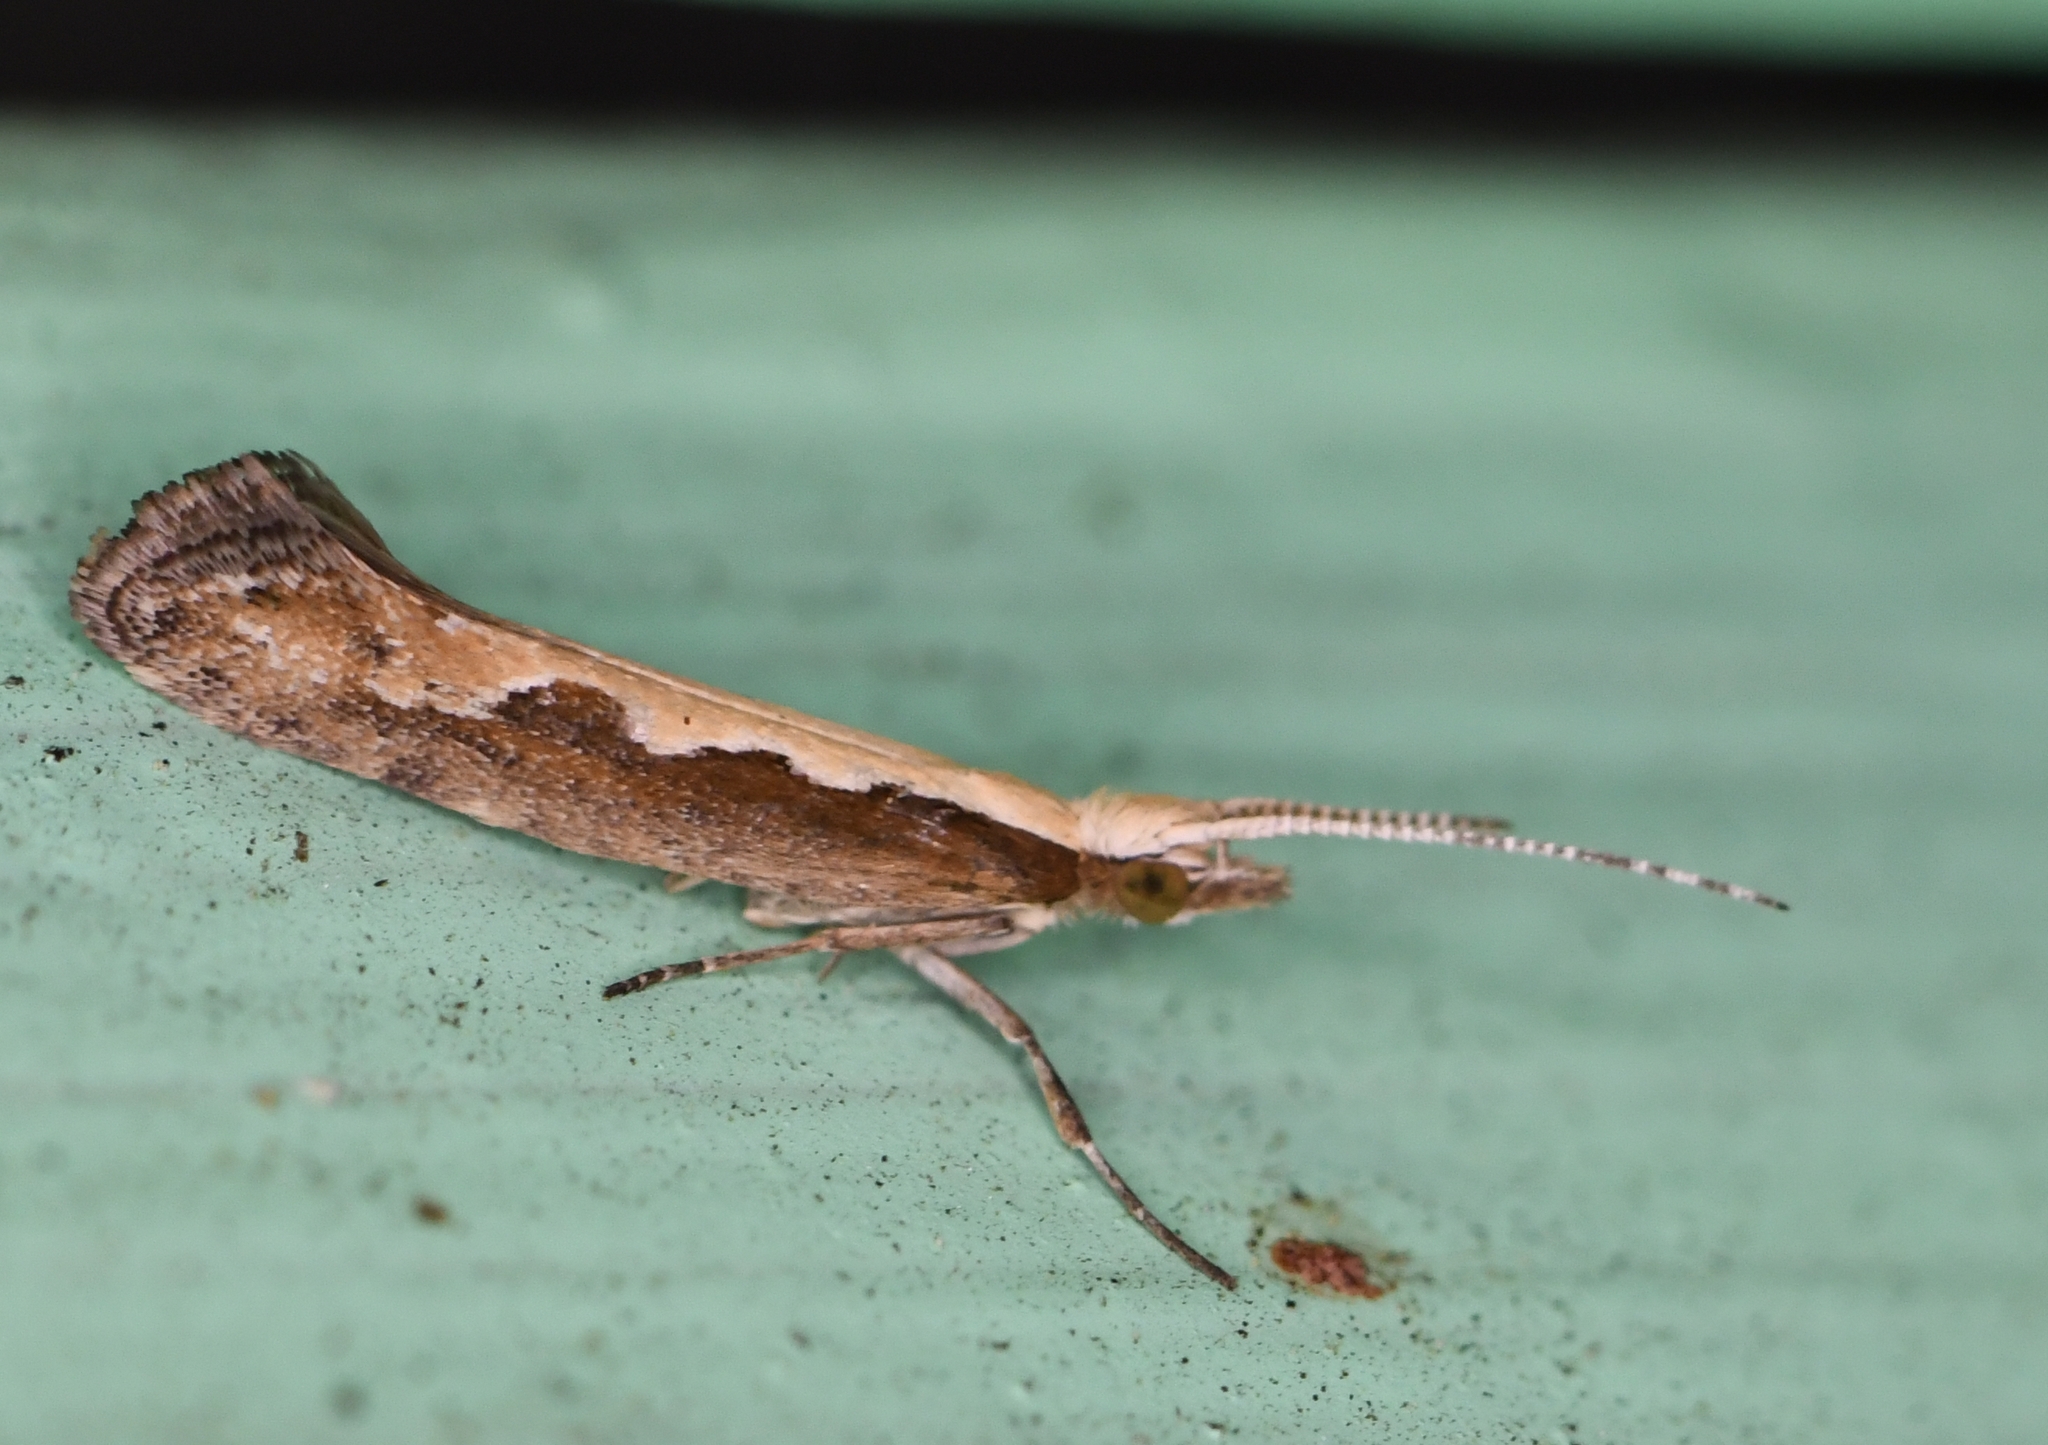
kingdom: Animalia
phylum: Arthropoda
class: Insecta
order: Lepidoptera
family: Plutellidae
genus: Plutella
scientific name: Plutella xylostella
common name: Diamond-back moth
